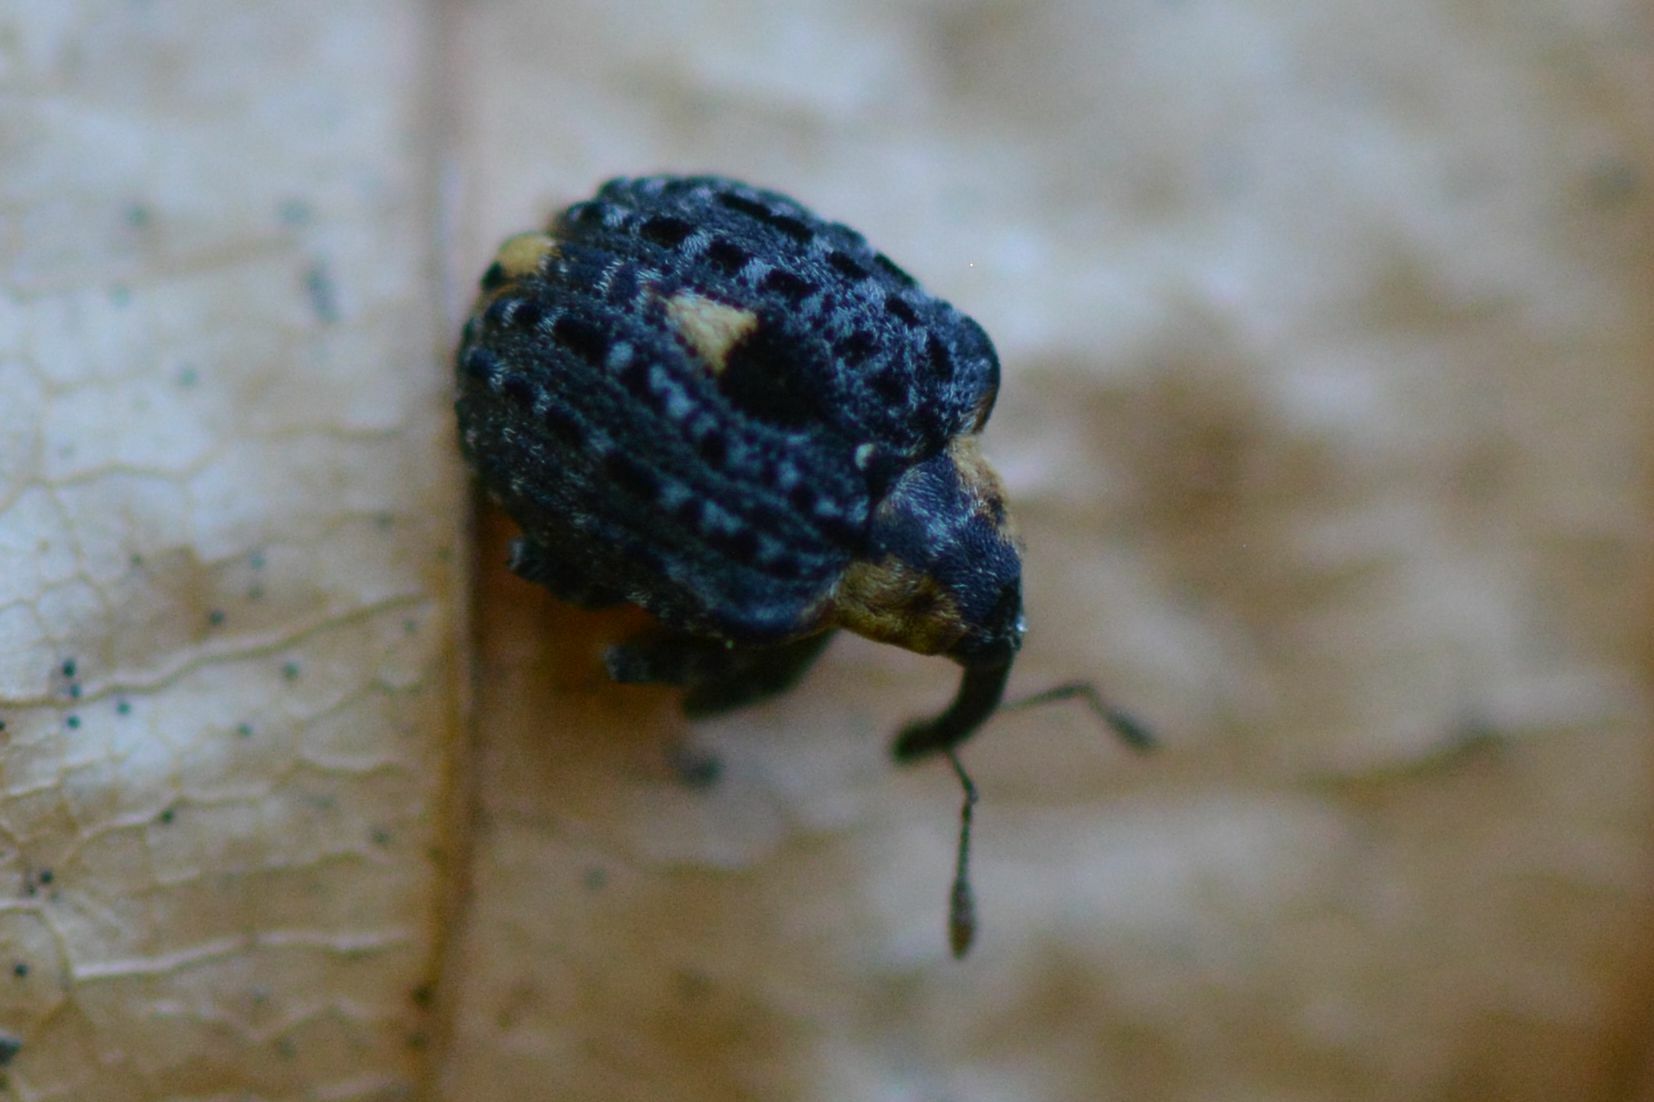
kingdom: Animalia
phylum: Arthropoda
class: Insecta
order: Coleoptera
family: Curculionidae
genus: Cionus
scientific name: Cionus tuberculosus
